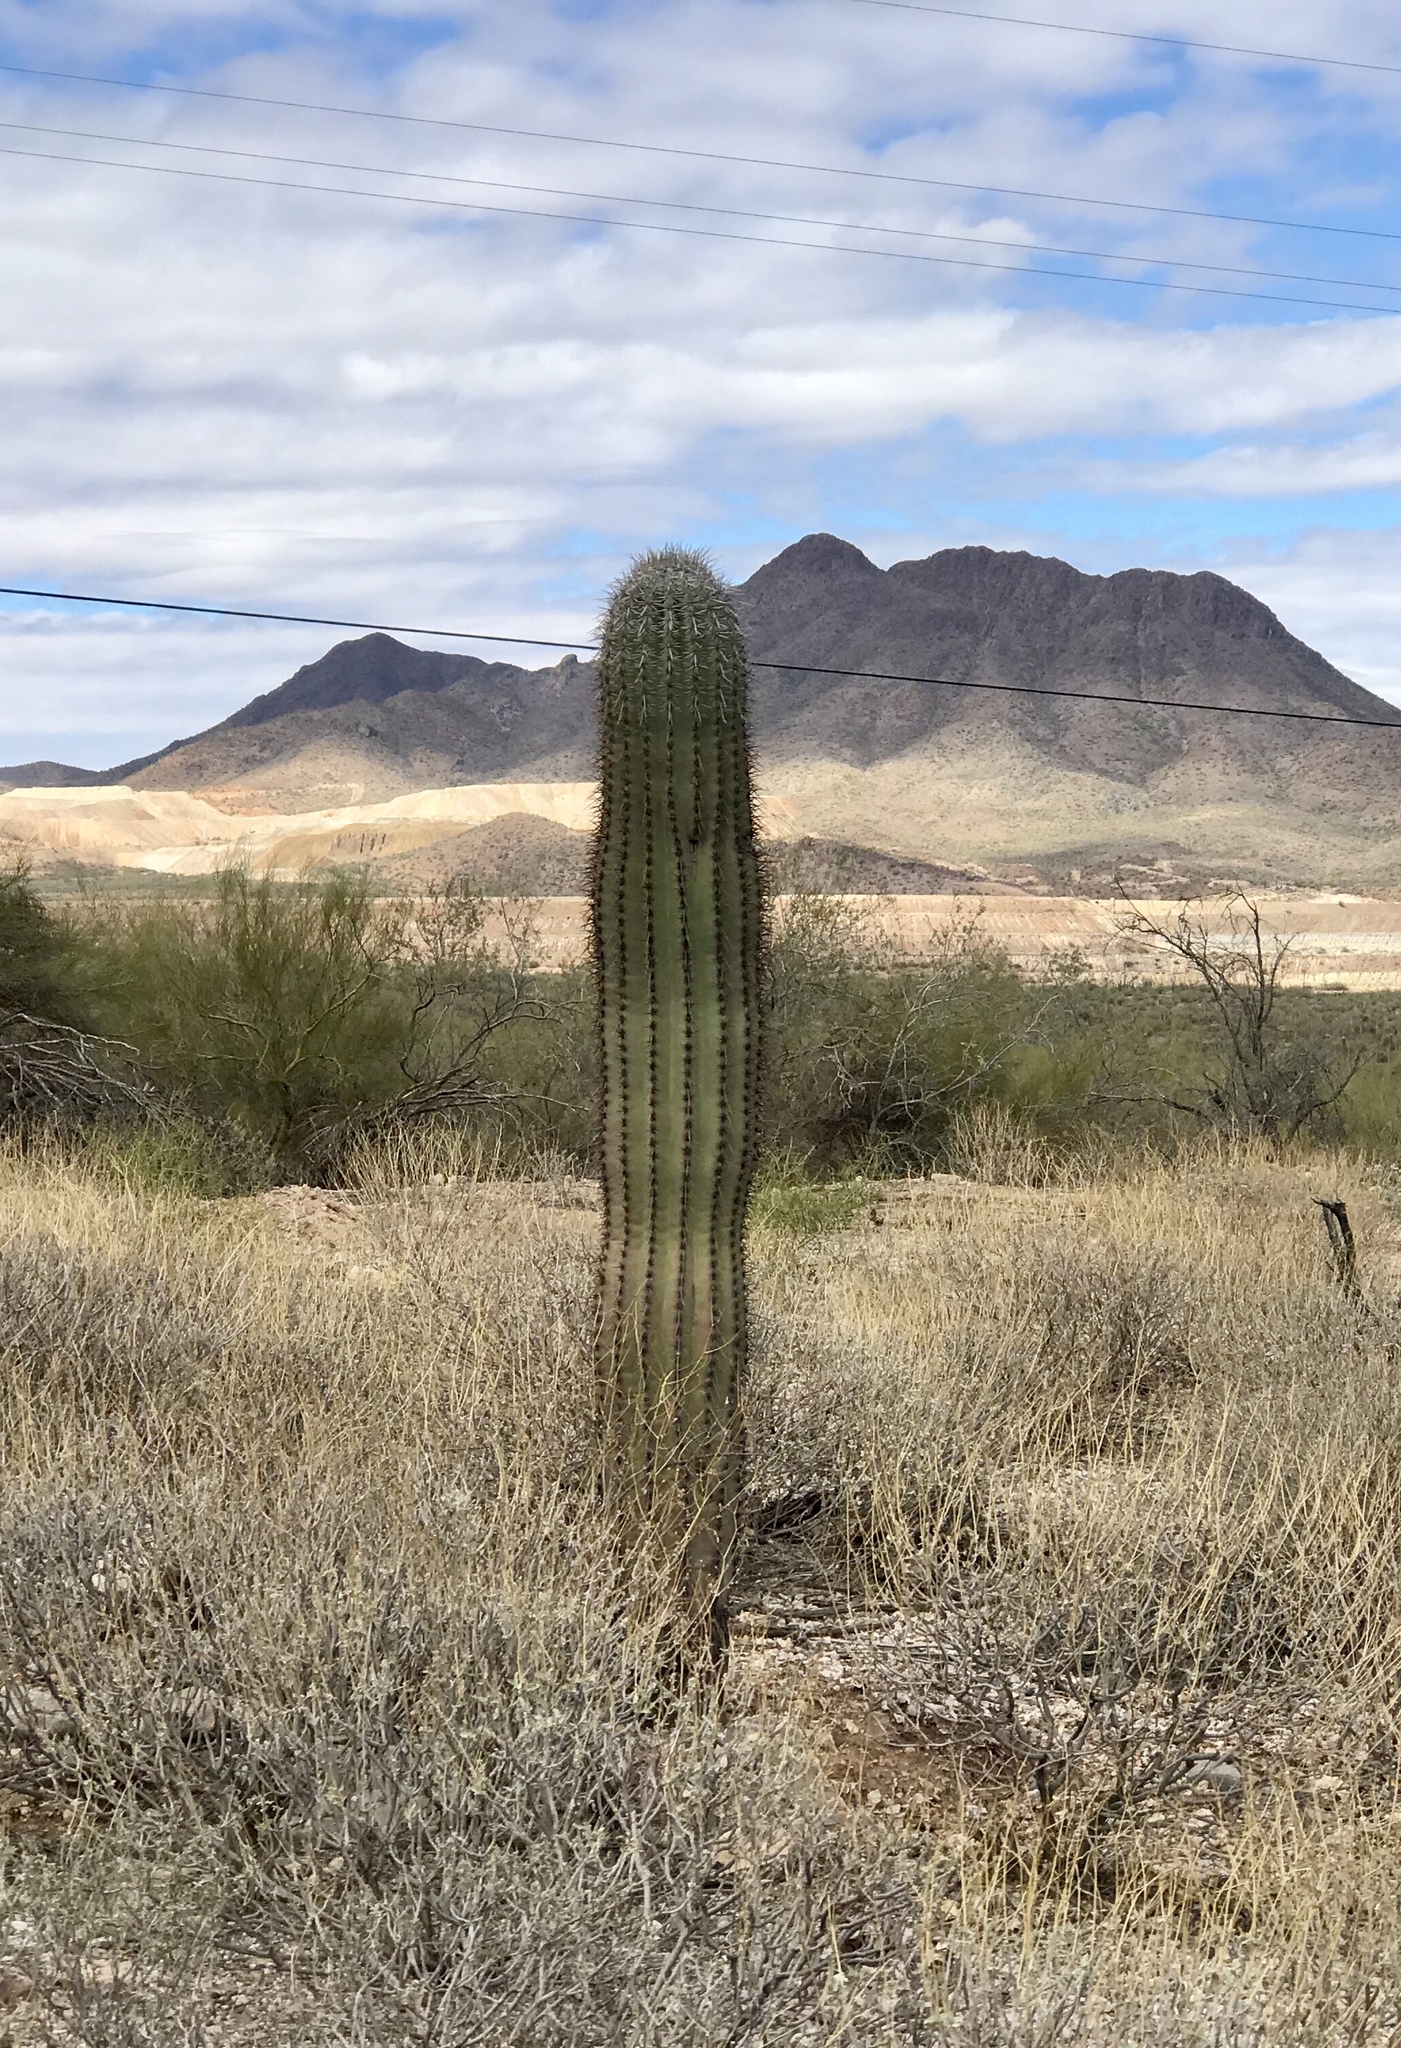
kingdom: Plantae
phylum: Tracheophyta
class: Magnoliopsida
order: Caryophyllales
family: Cactaceae
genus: Carnegiea
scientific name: Carnegiea gigantea
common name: Saguaro
